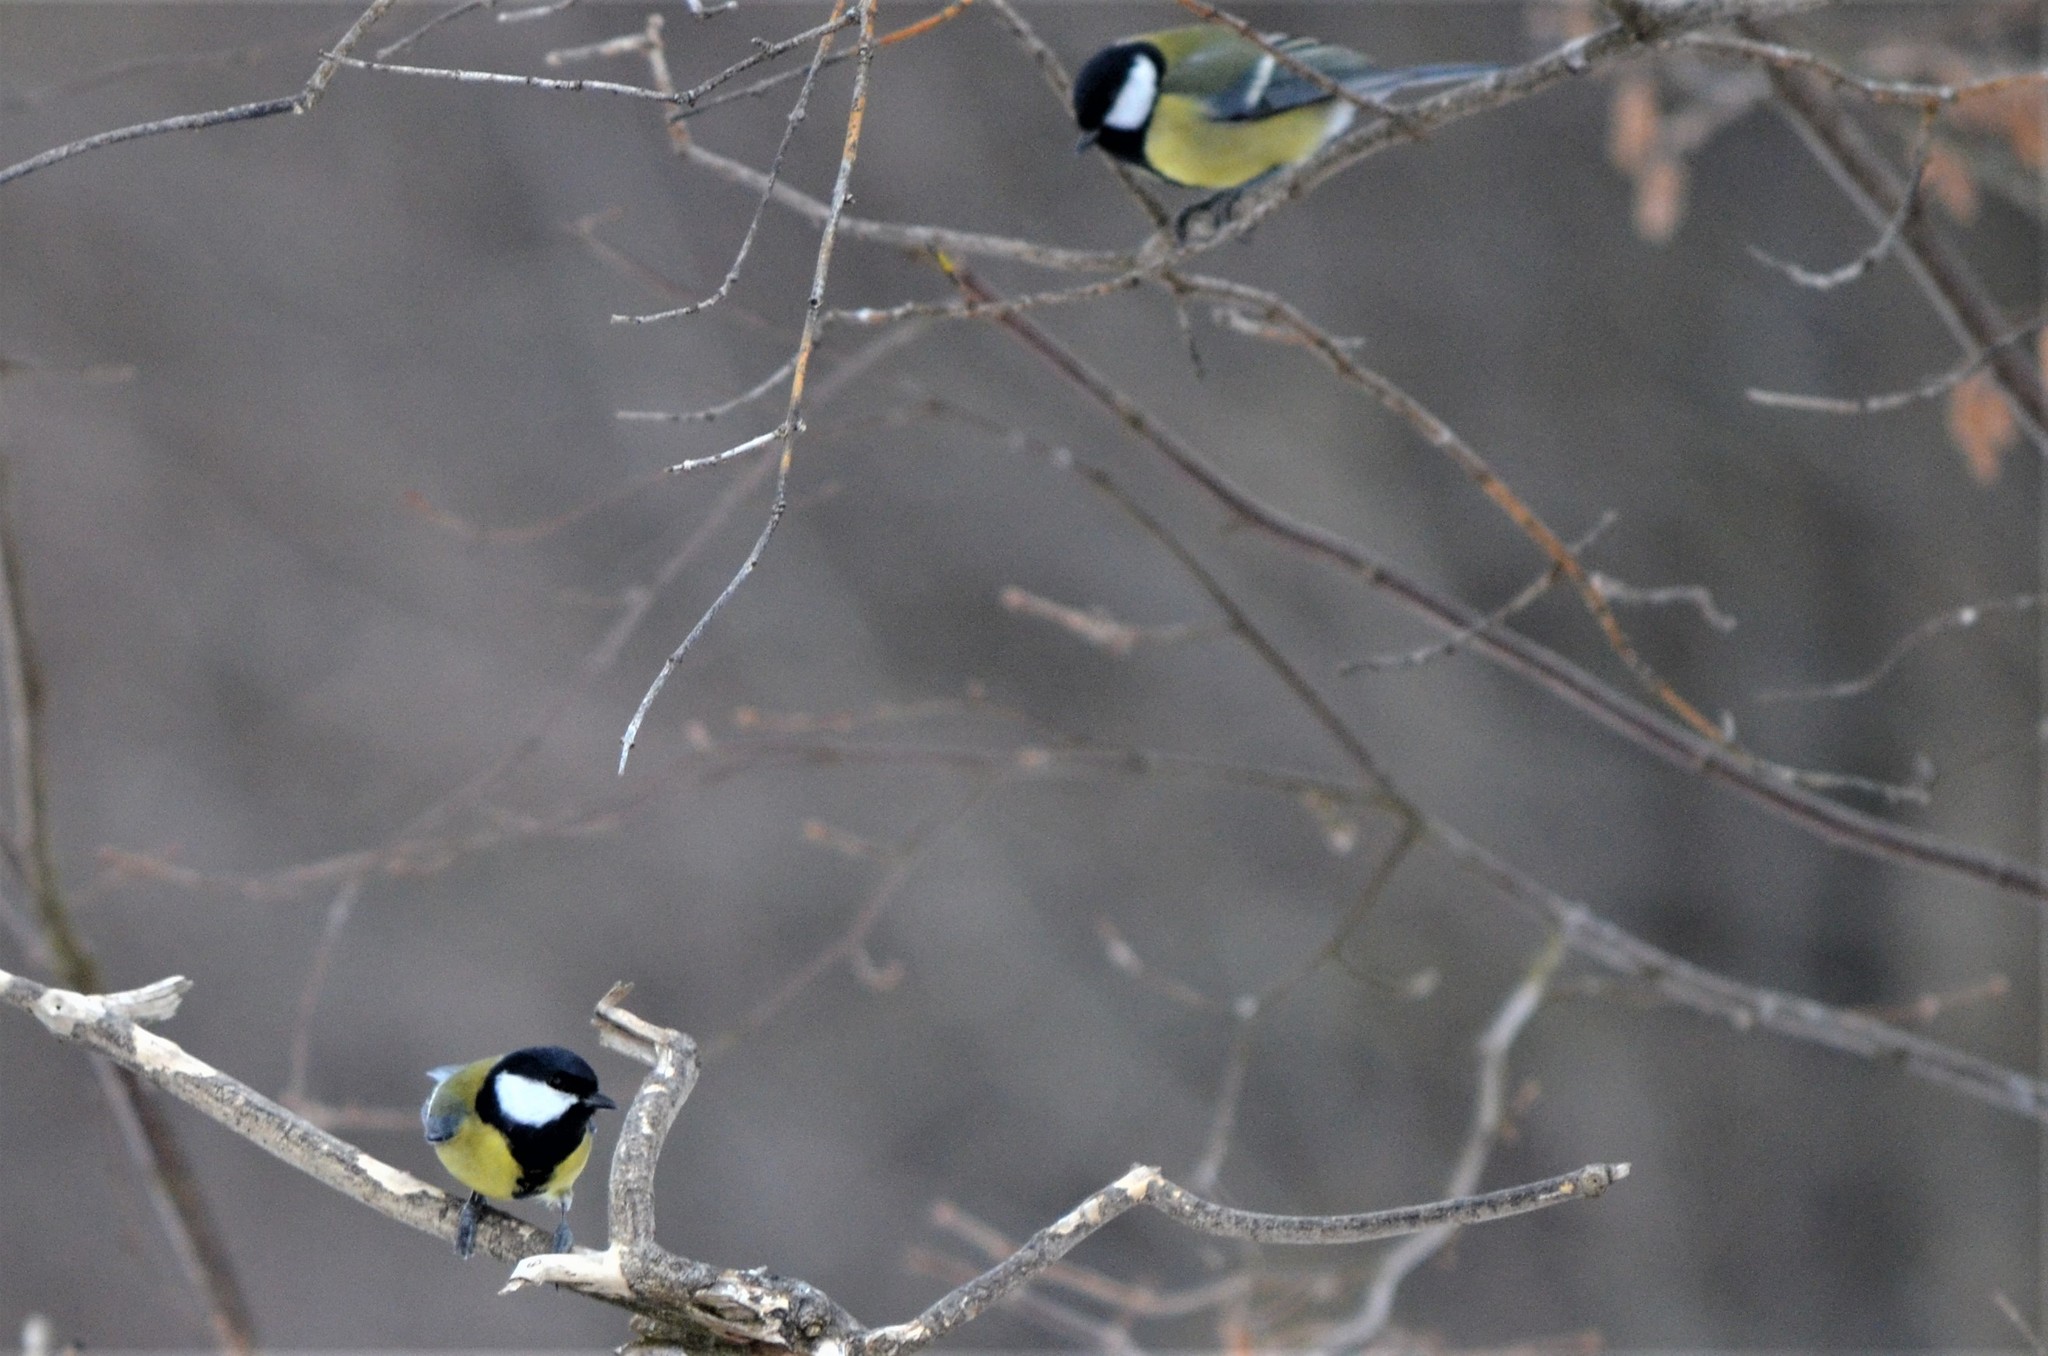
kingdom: Animalia
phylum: Chordata
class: Aves
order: Passeriformes
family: Paridae
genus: Parus
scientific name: Parus major
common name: Great tit
